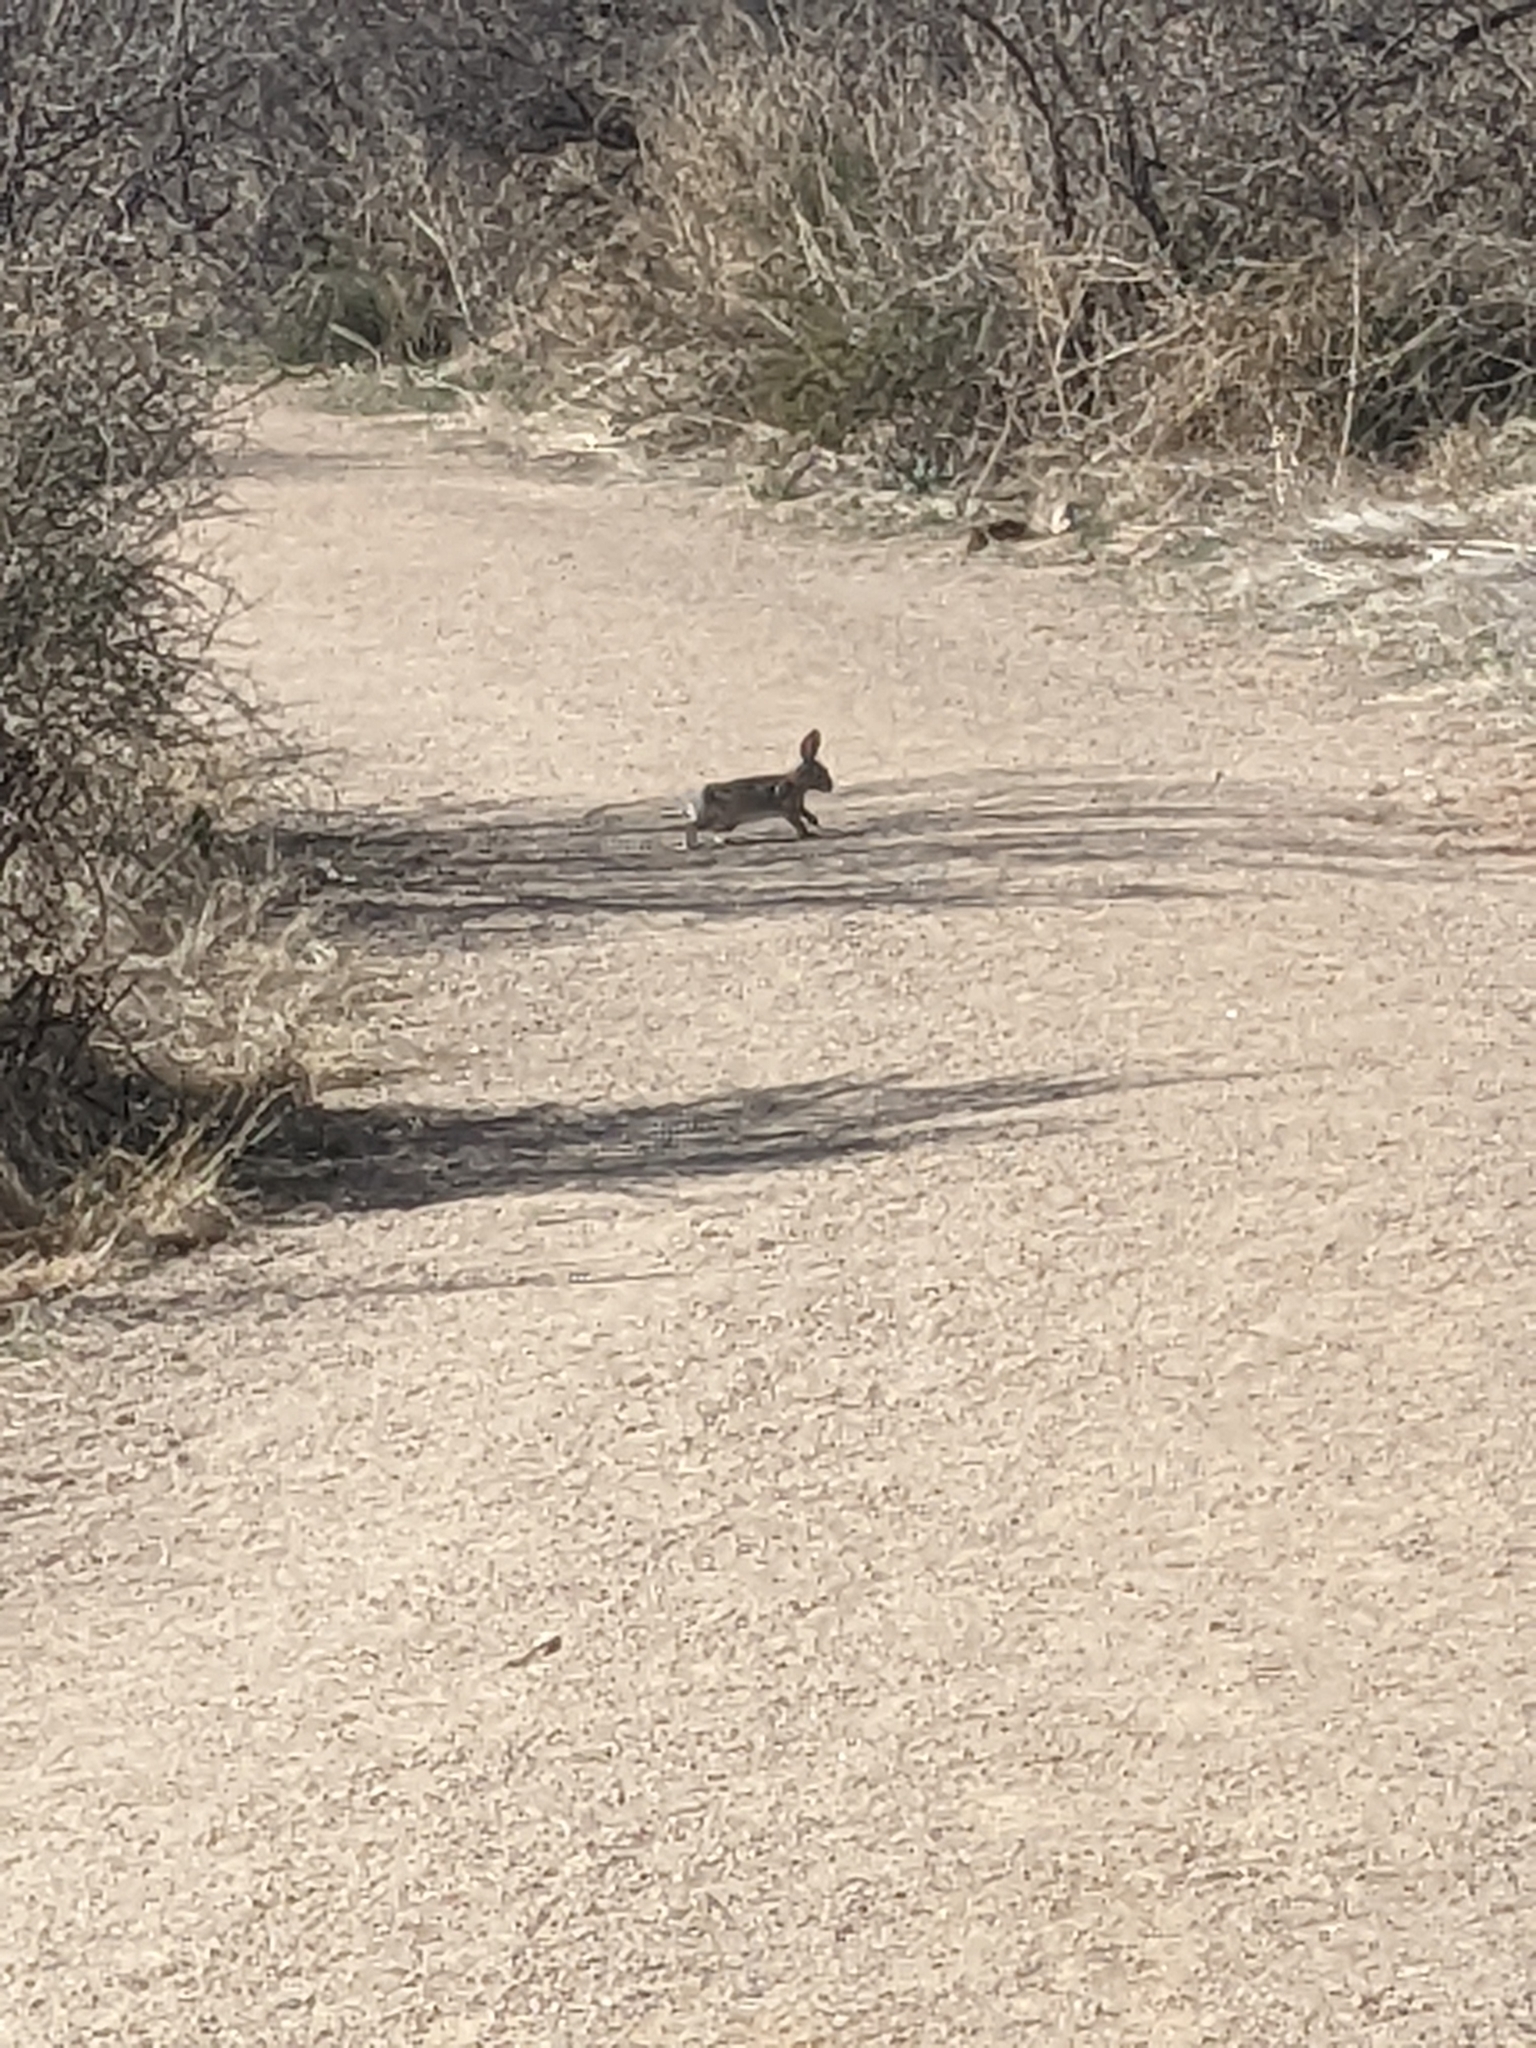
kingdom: Animalia
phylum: Chordata
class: Mammalia
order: Lagomorpha
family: Leporidae
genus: Sylvilagus
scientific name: Sylvilagus audubonii
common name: Desert cottontail
